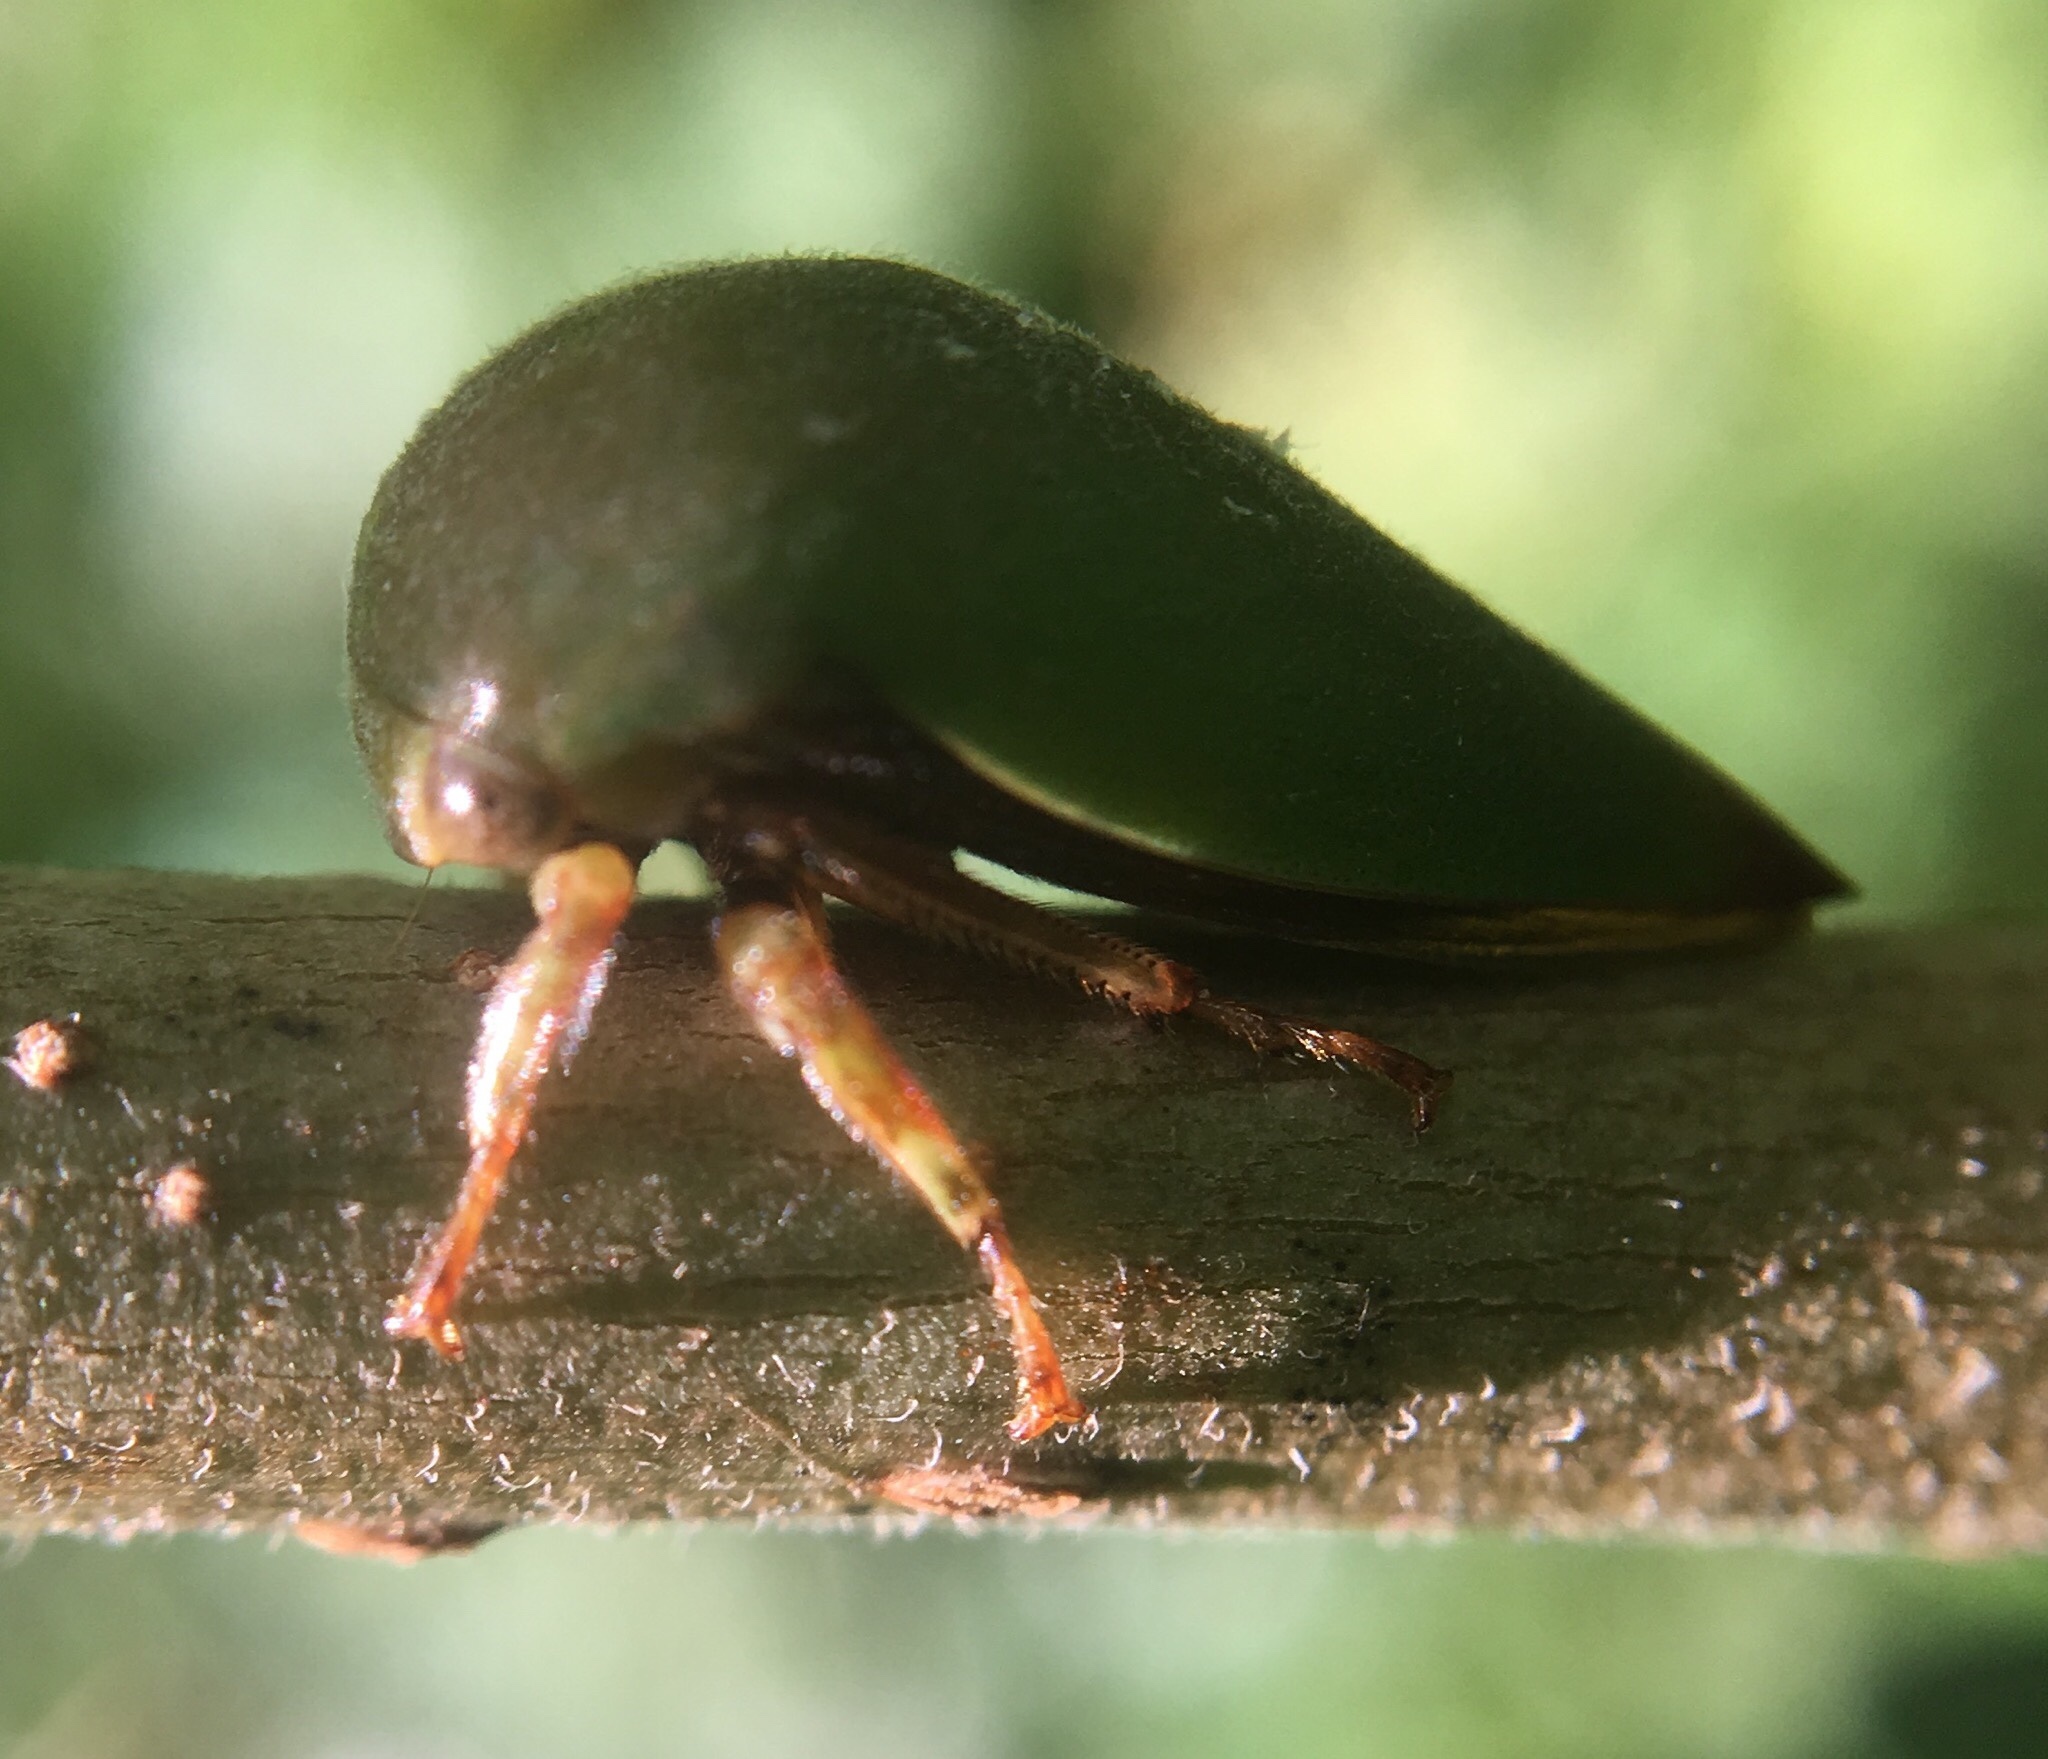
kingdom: Animalia
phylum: Arthropoda
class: Insecta
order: Hemiptera
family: Membracidae
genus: Hebetica
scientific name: Hebetica
